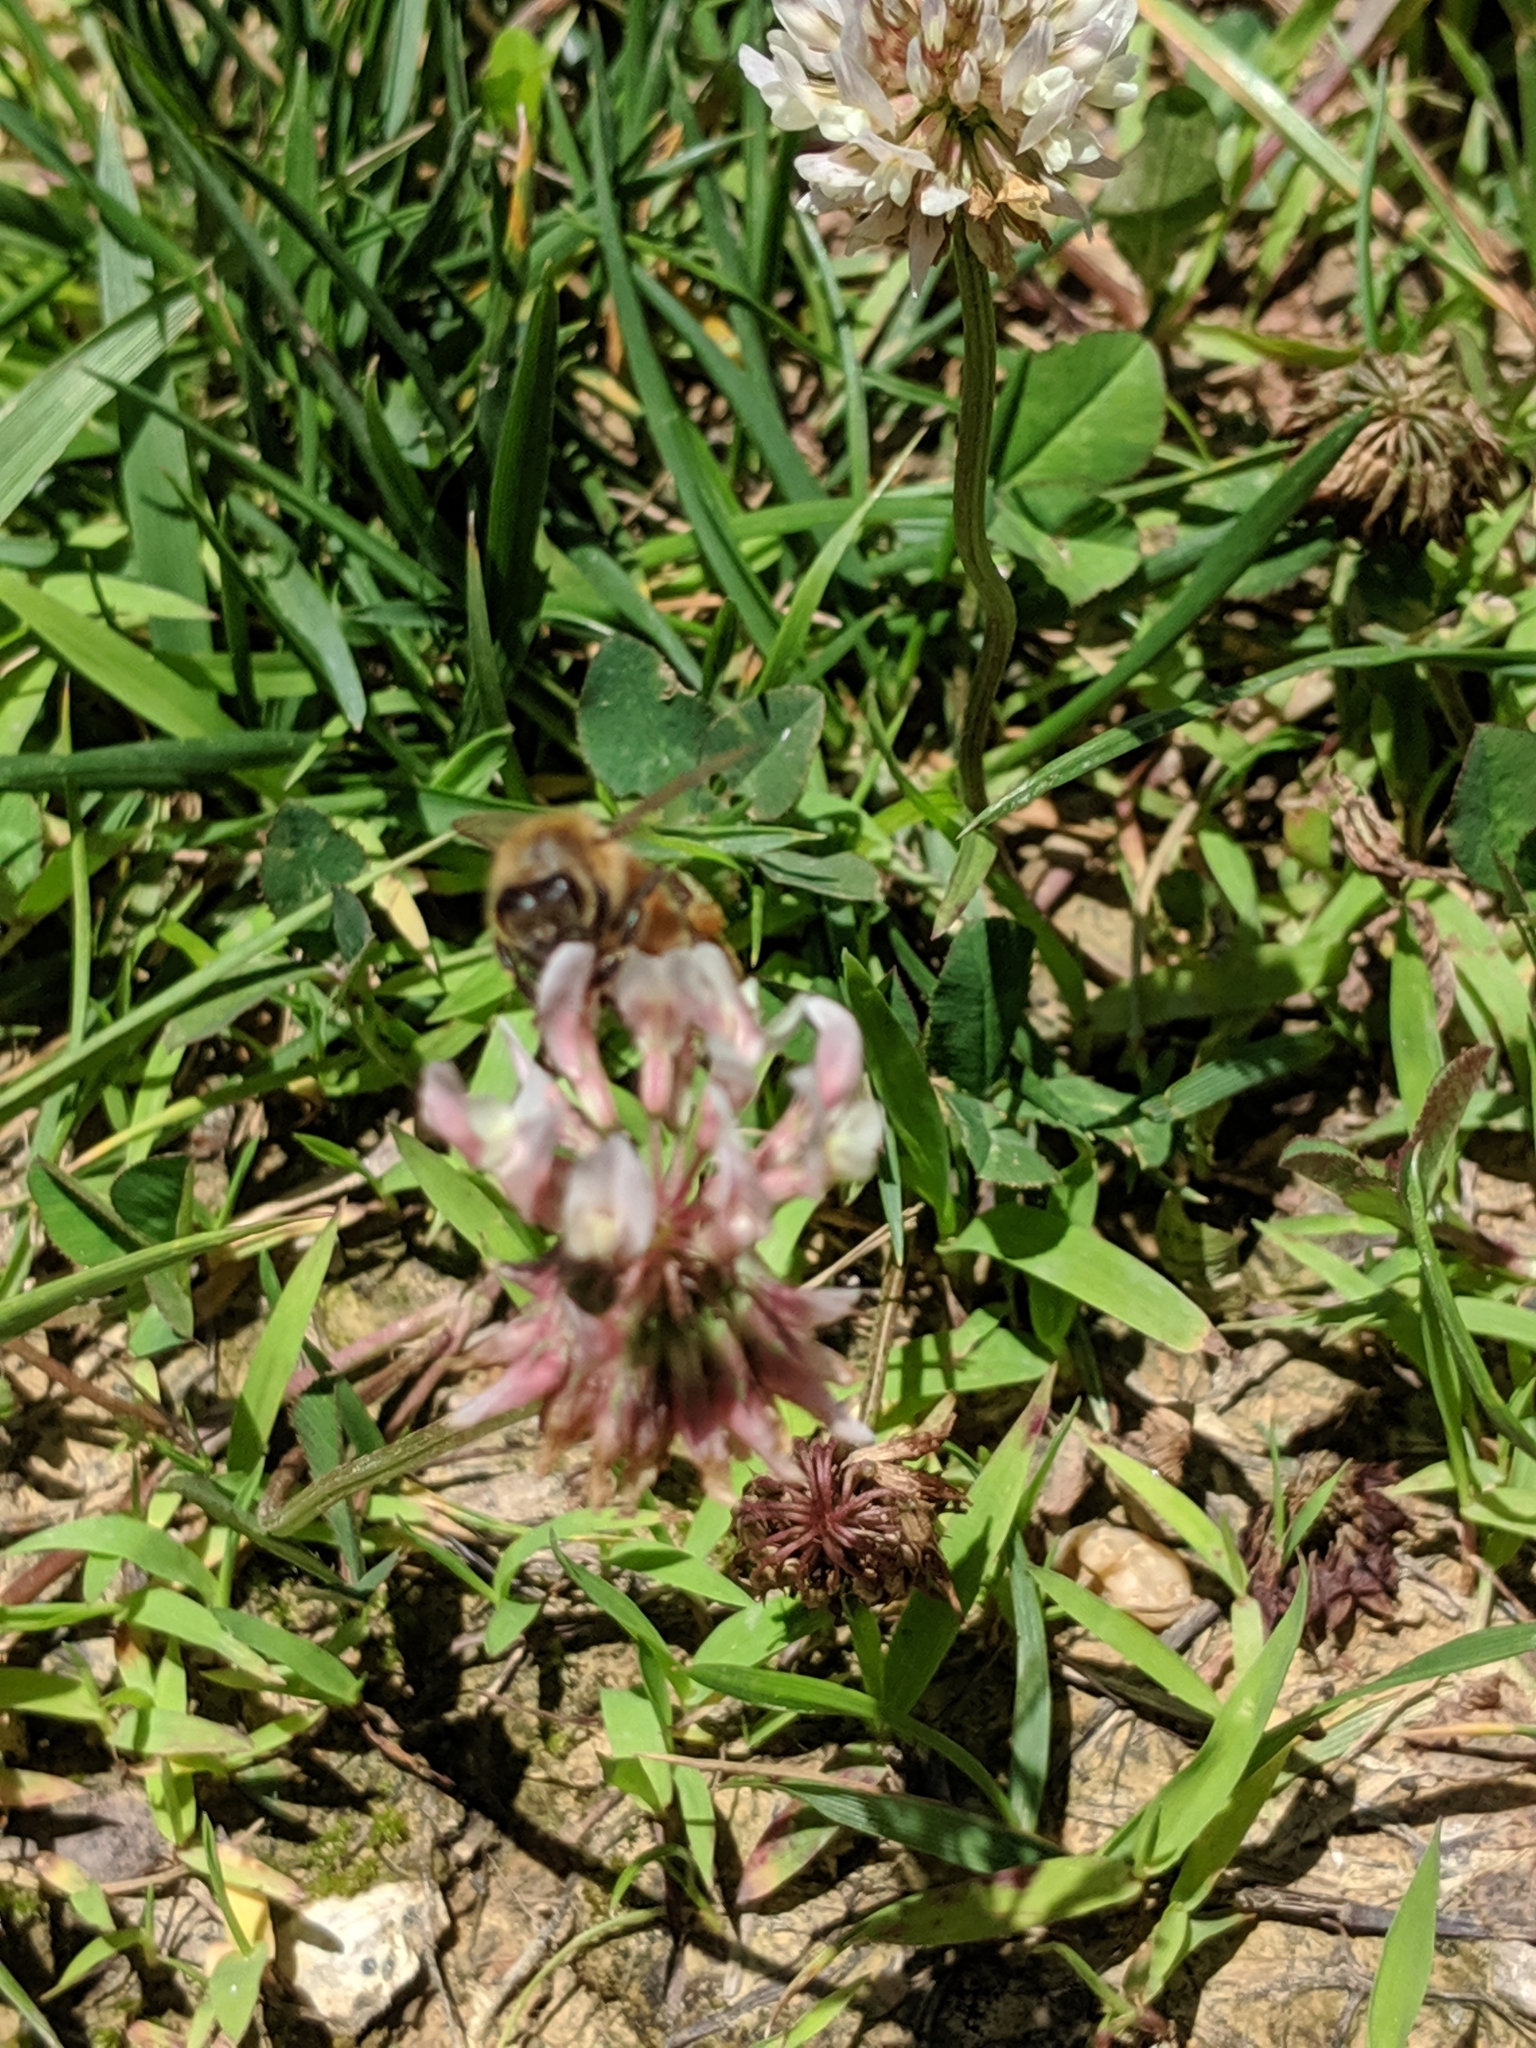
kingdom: Animalia
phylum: Arthropoda
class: Insecta
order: Hymenoptera
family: Apidae
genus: Apis
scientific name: Apis mellifera
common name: Honey bee
